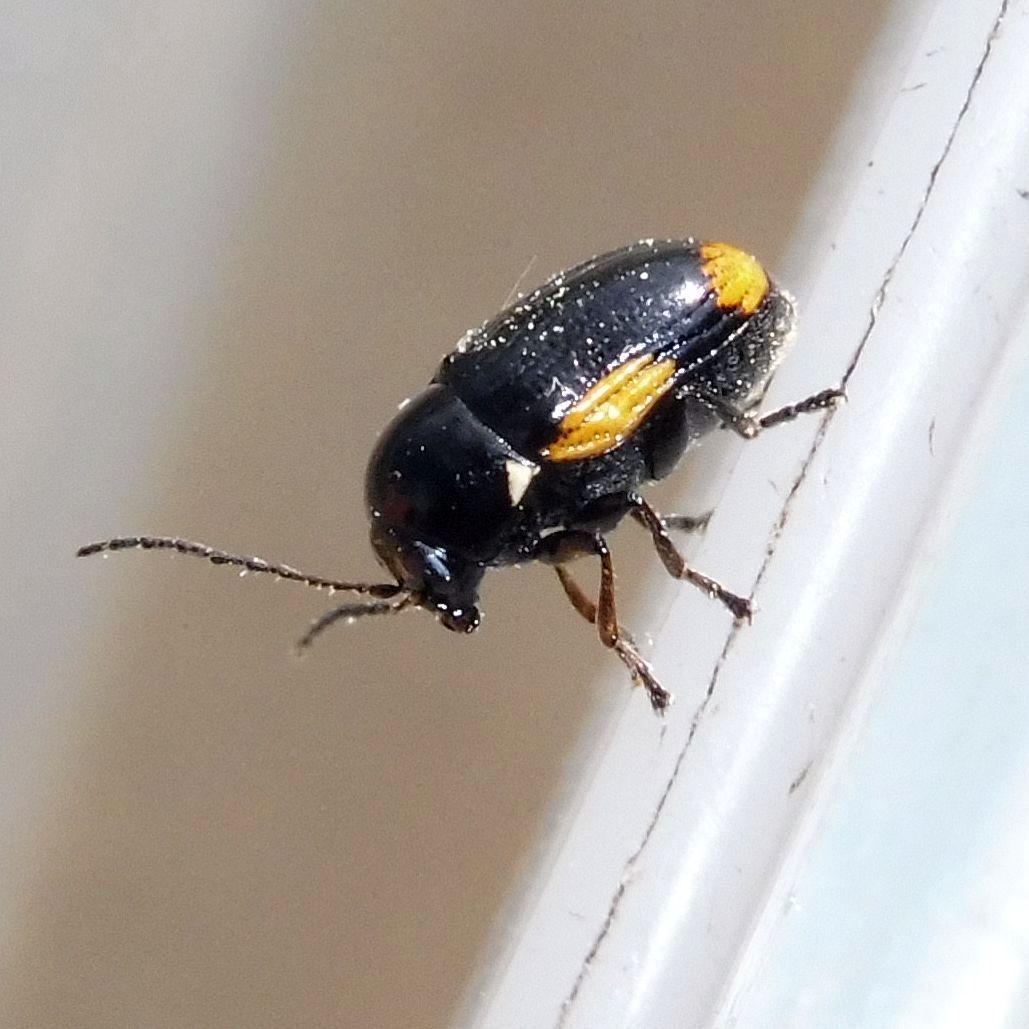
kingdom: Animalia
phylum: Arthropoda
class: Insecta
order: Coleoptera
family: Chrysomelidae
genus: Cryptocephalus
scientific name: Cryptocephalus moraei
